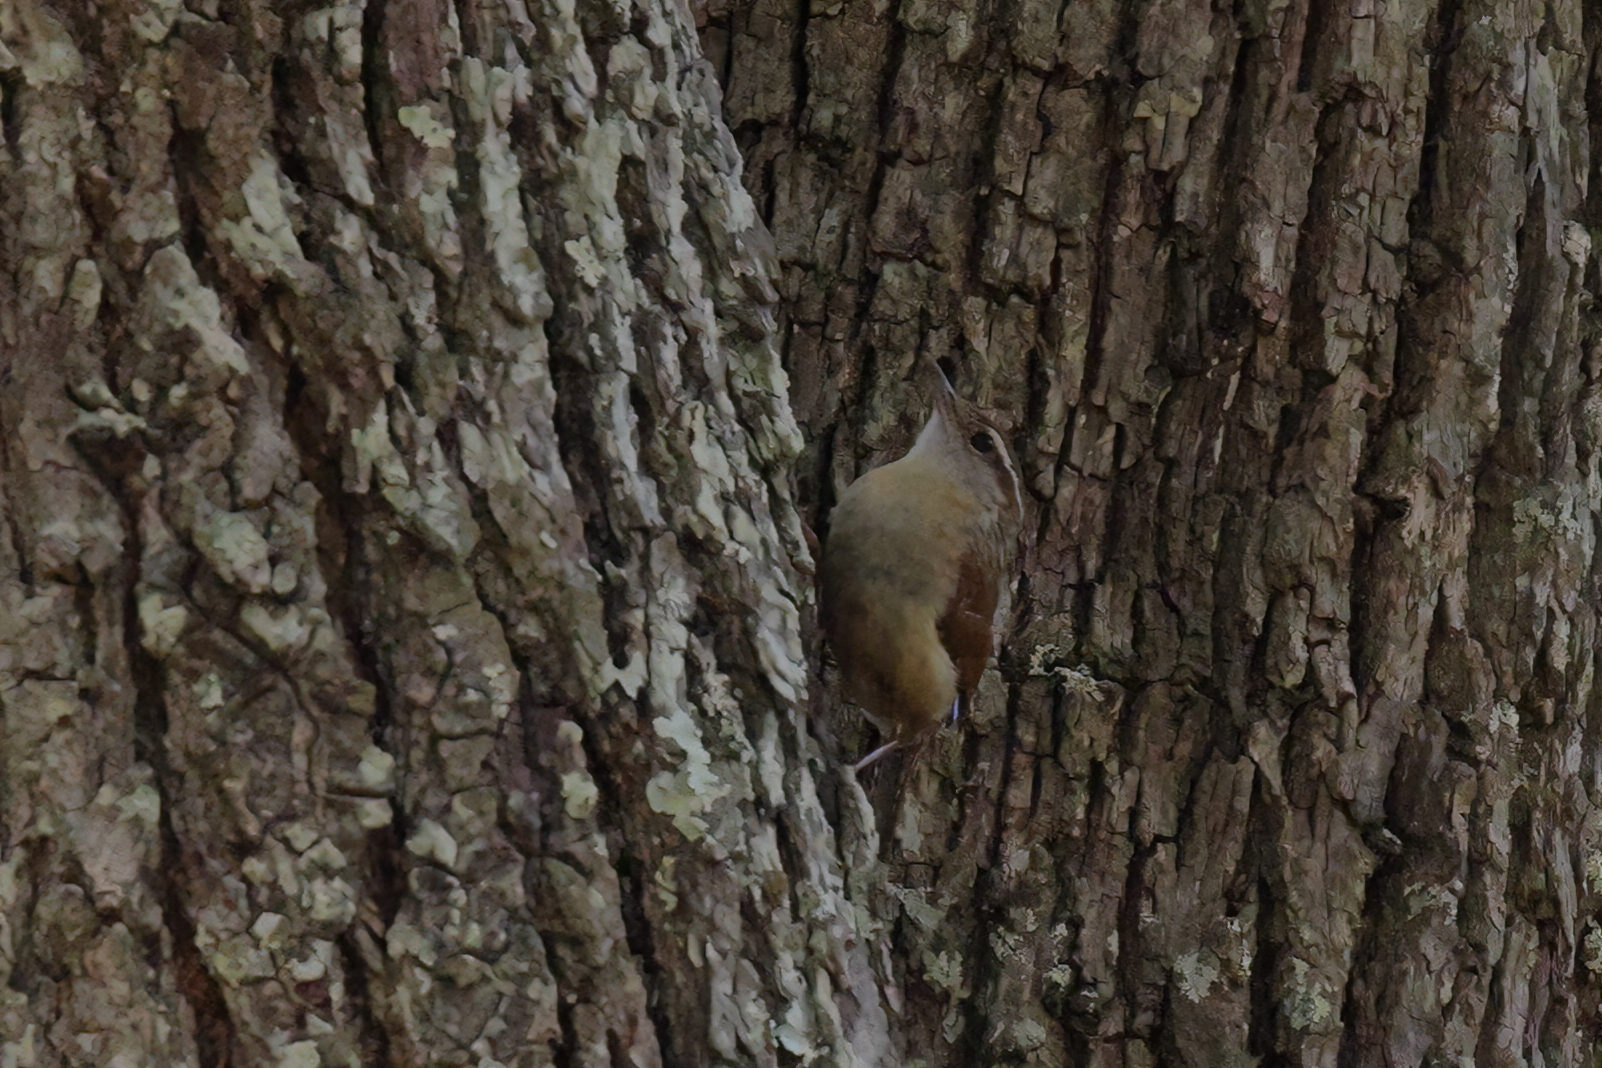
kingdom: Animalia
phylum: Chordata
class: Aves
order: Passeriformes
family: Troglodytidae
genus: Thryothorus
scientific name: Thryothorus ludovicianus
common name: Carolina wren
